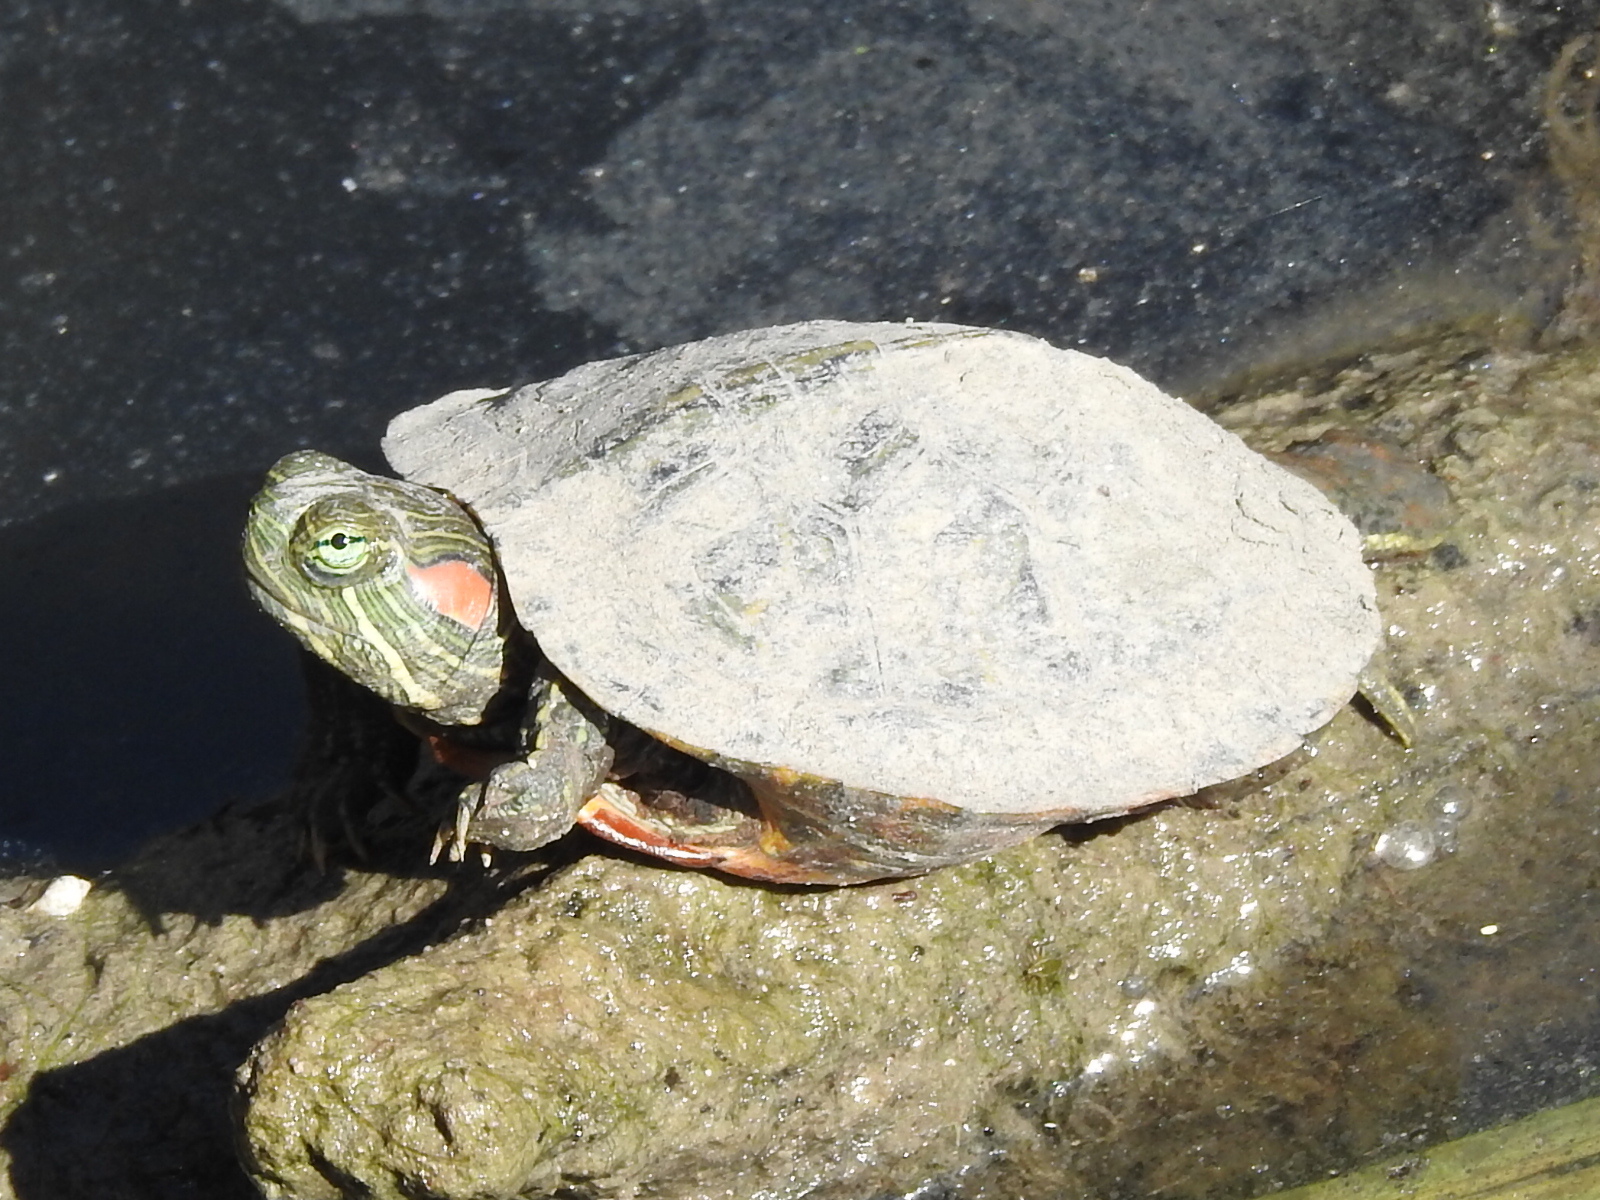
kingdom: Animalia
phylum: Chordata
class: Testudines
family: Emydidae
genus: Trachemys
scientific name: Trachemys scripta
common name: Slider
